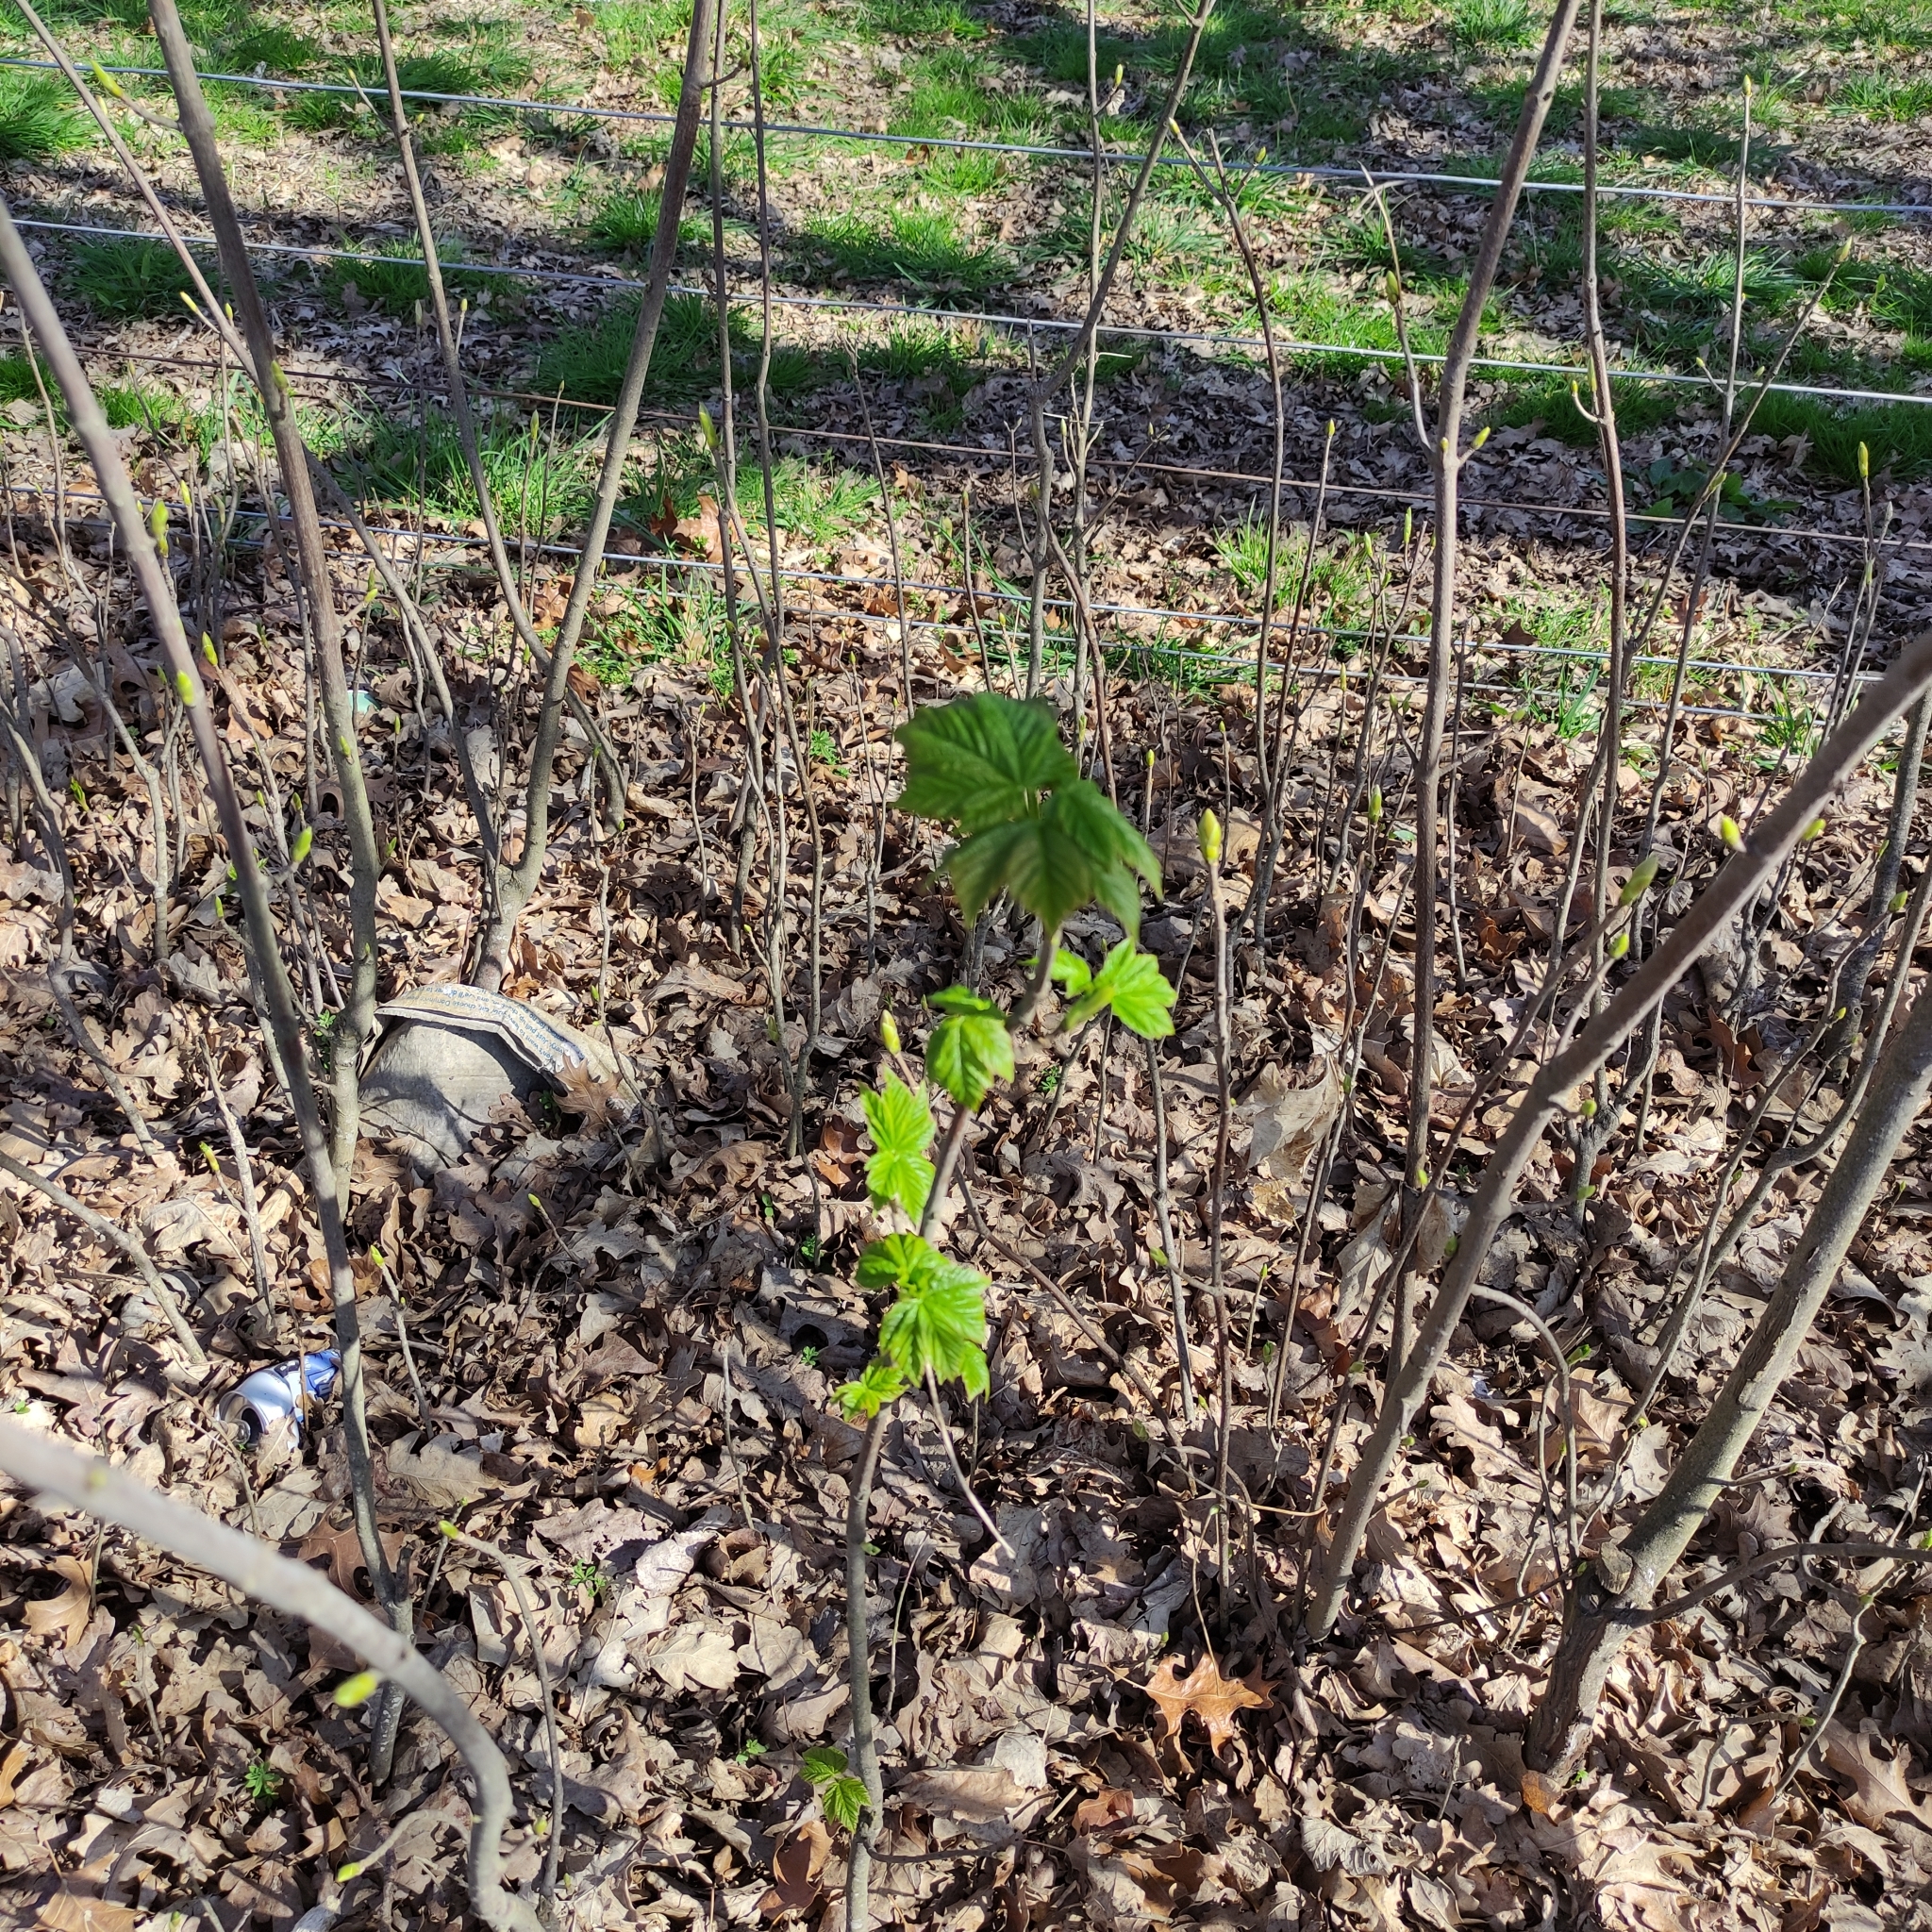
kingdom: Plantae
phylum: Tracheophyta
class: Magnoliopsida
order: Sapindales
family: Sapindaceae
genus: Acer
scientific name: Acer pseudoplatanus
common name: Sycamore
